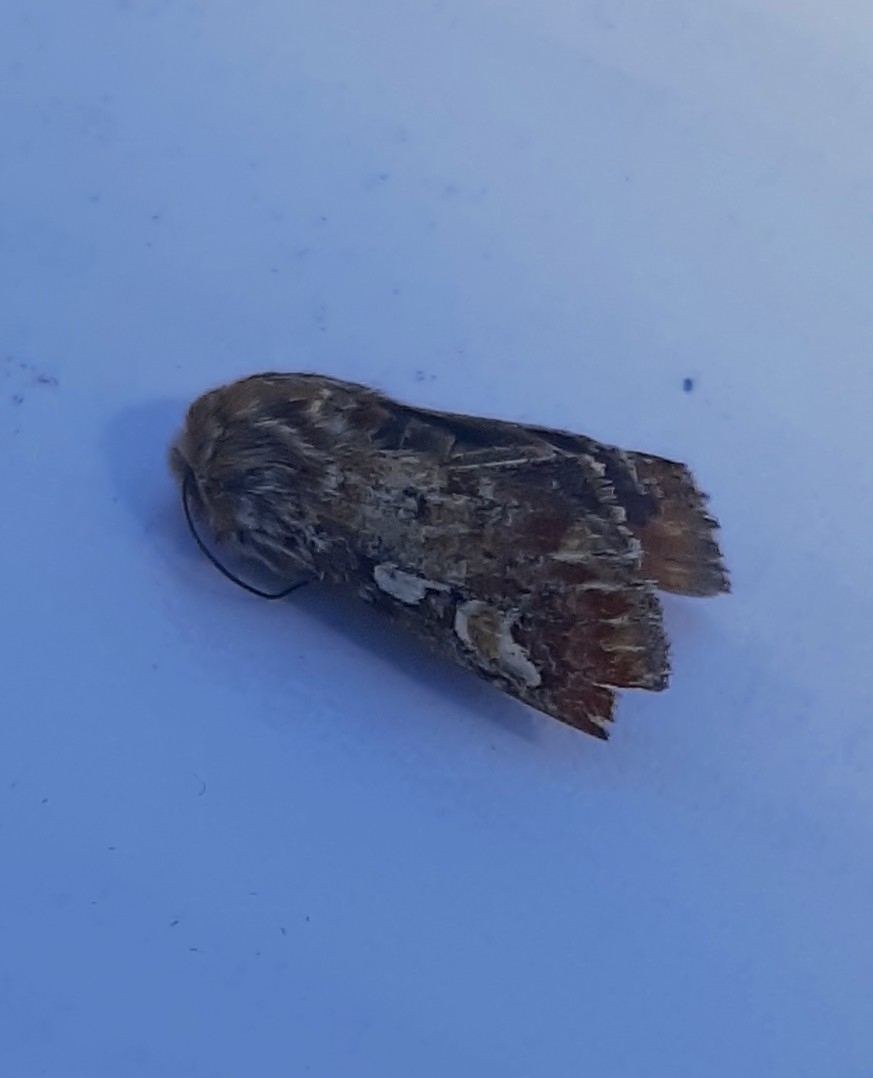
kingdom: Animalia
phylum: Arthropoda
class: Insecta
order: Lepidoptera
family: Noctuidae
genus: Panolis
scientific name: Panolis flammea
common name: Pine beauty
